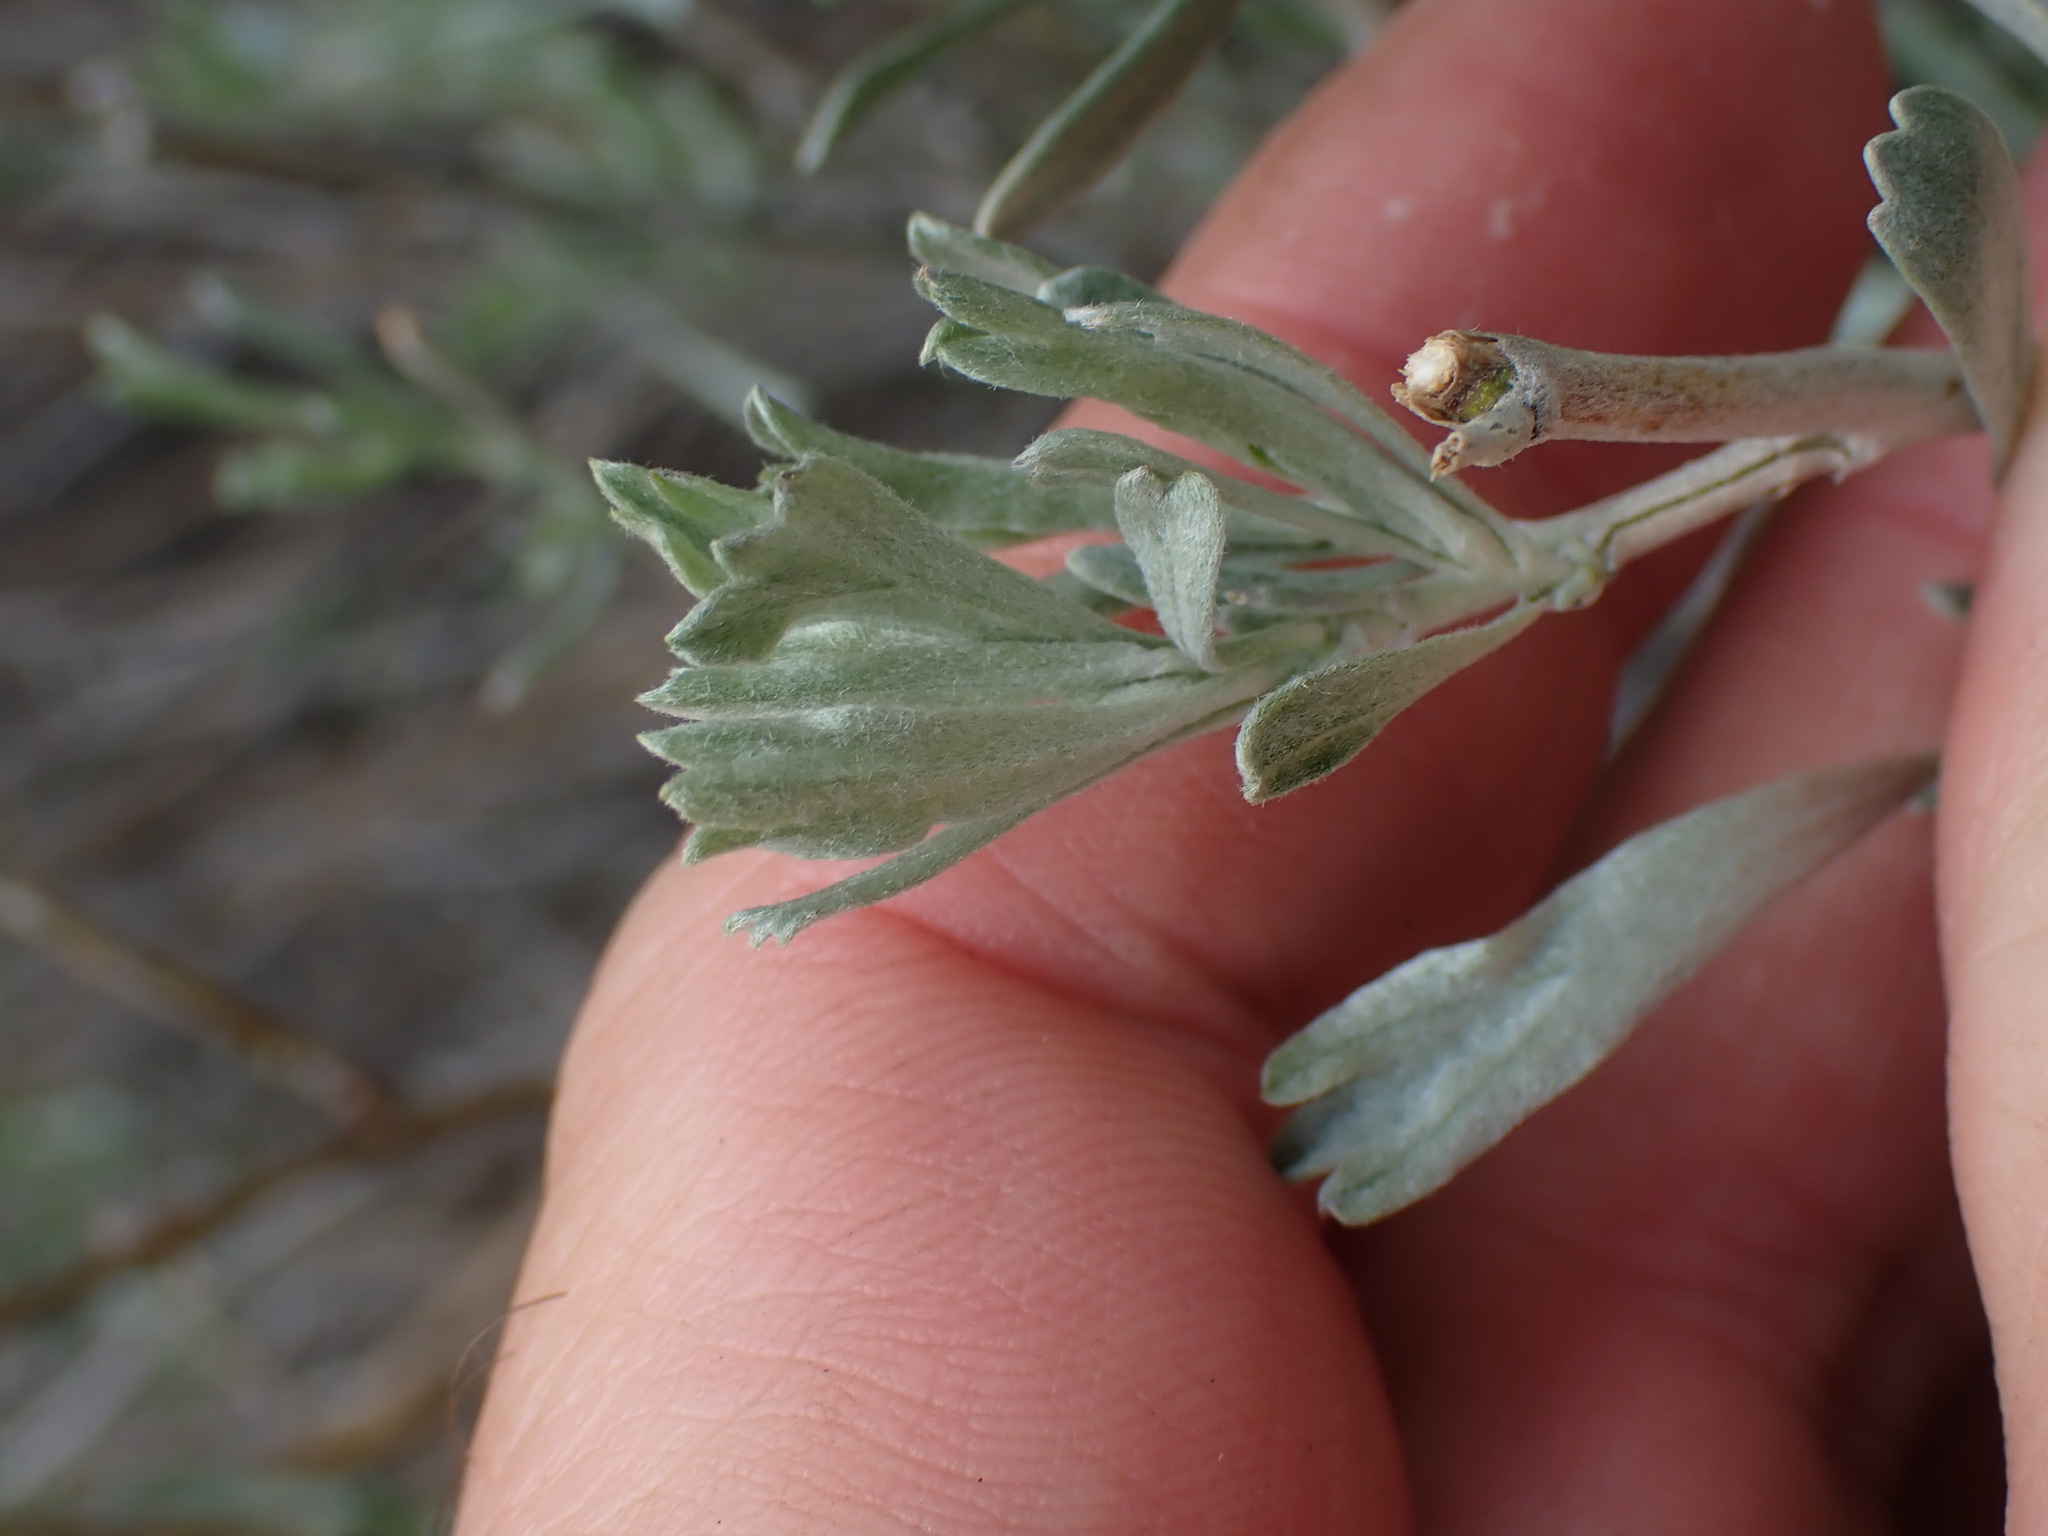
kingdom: Plantae
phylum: Tracheophyta
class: Magnoliopsida
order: Asterales
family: Asteraceae
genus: Artemisia
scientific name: Artemisia tridentata
